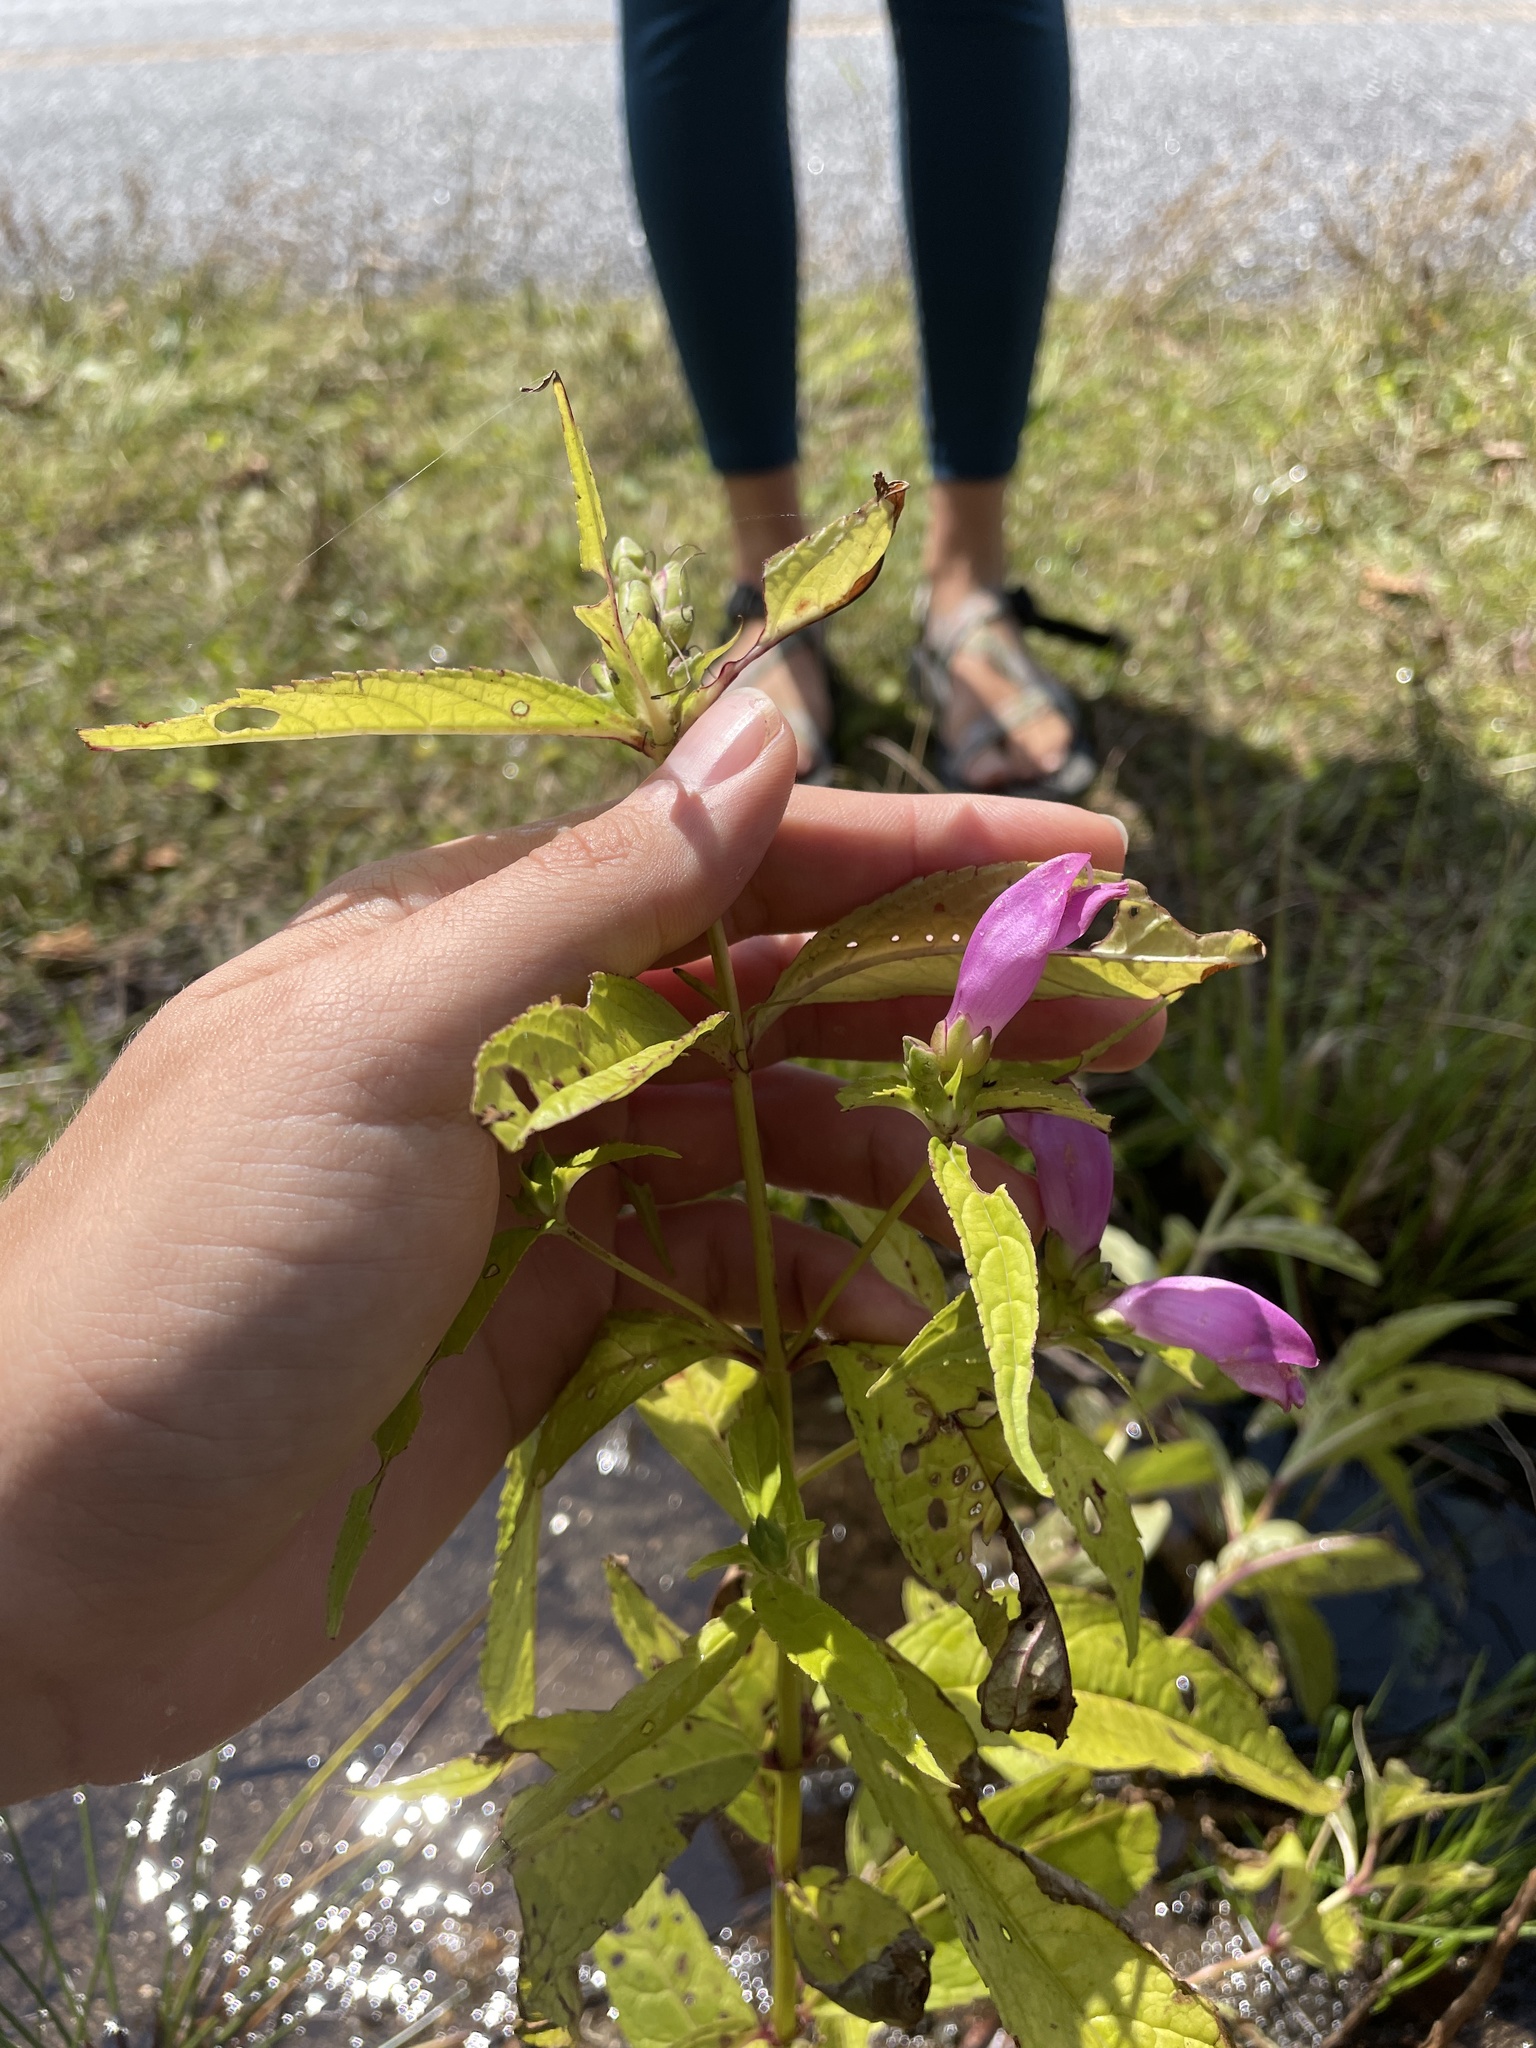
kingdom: Plantae
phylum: Tracheophyta
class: Magnoliopsida
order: Lamiales
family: Plantaginaceae
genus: Chelone
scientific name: Chelone cuthbertii
